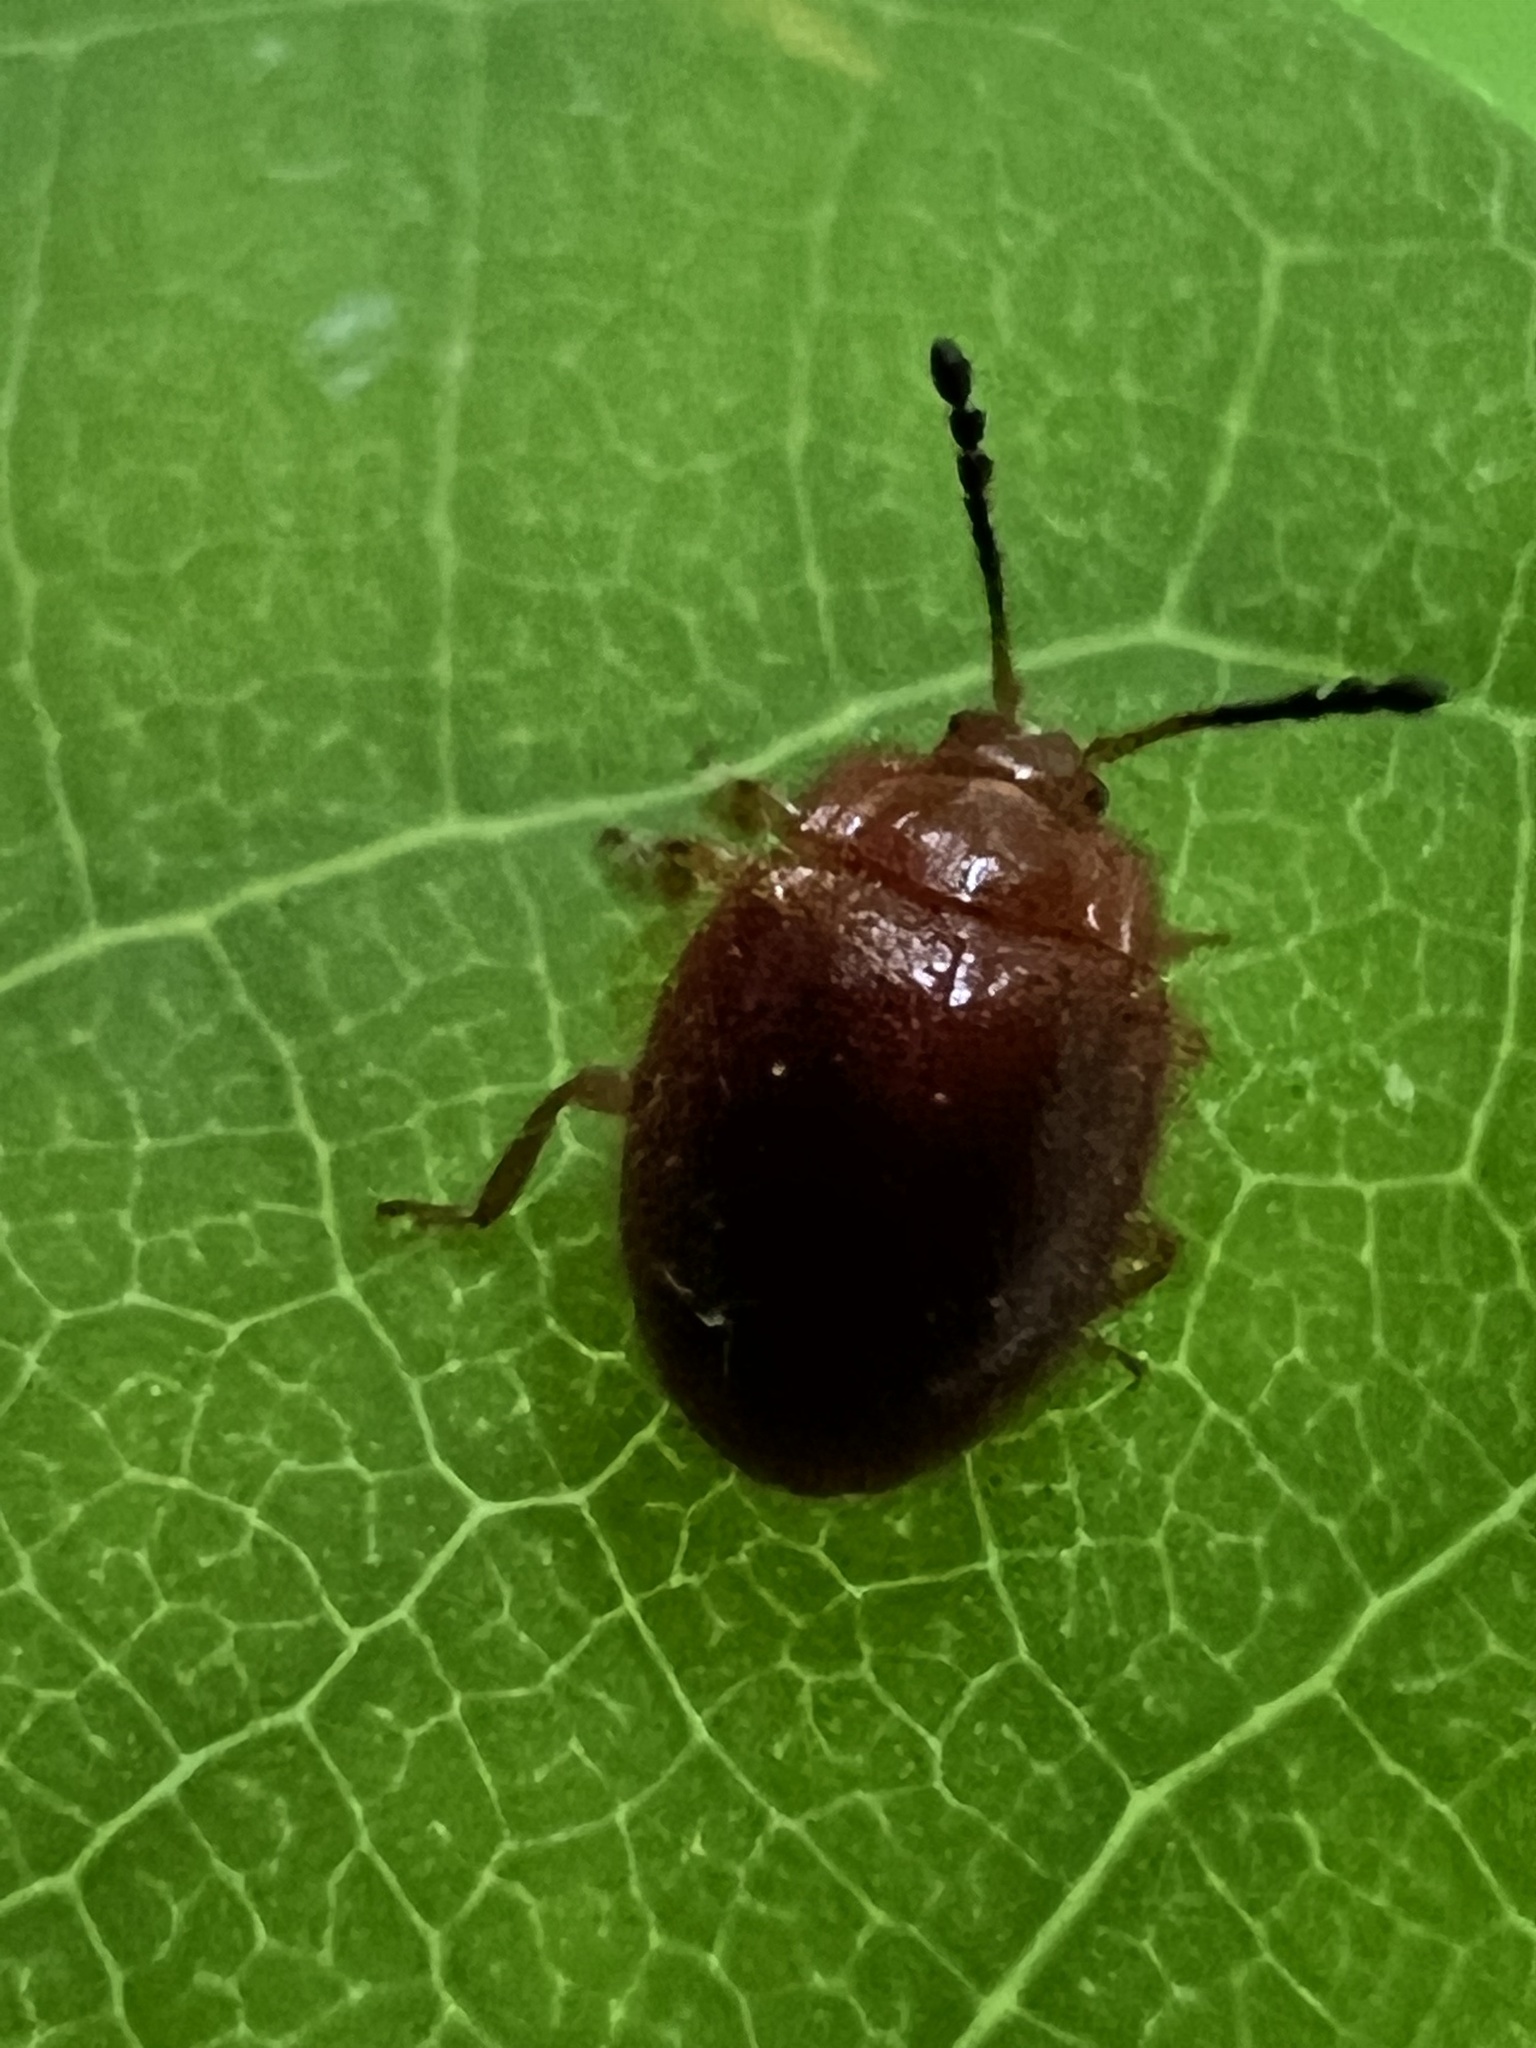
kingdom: Animalia
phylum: Arthropoda
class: Insecta
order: Coleoptera
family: Endomychidae
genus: Stenotarsus
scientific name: Stenotarsus blatchleyi
